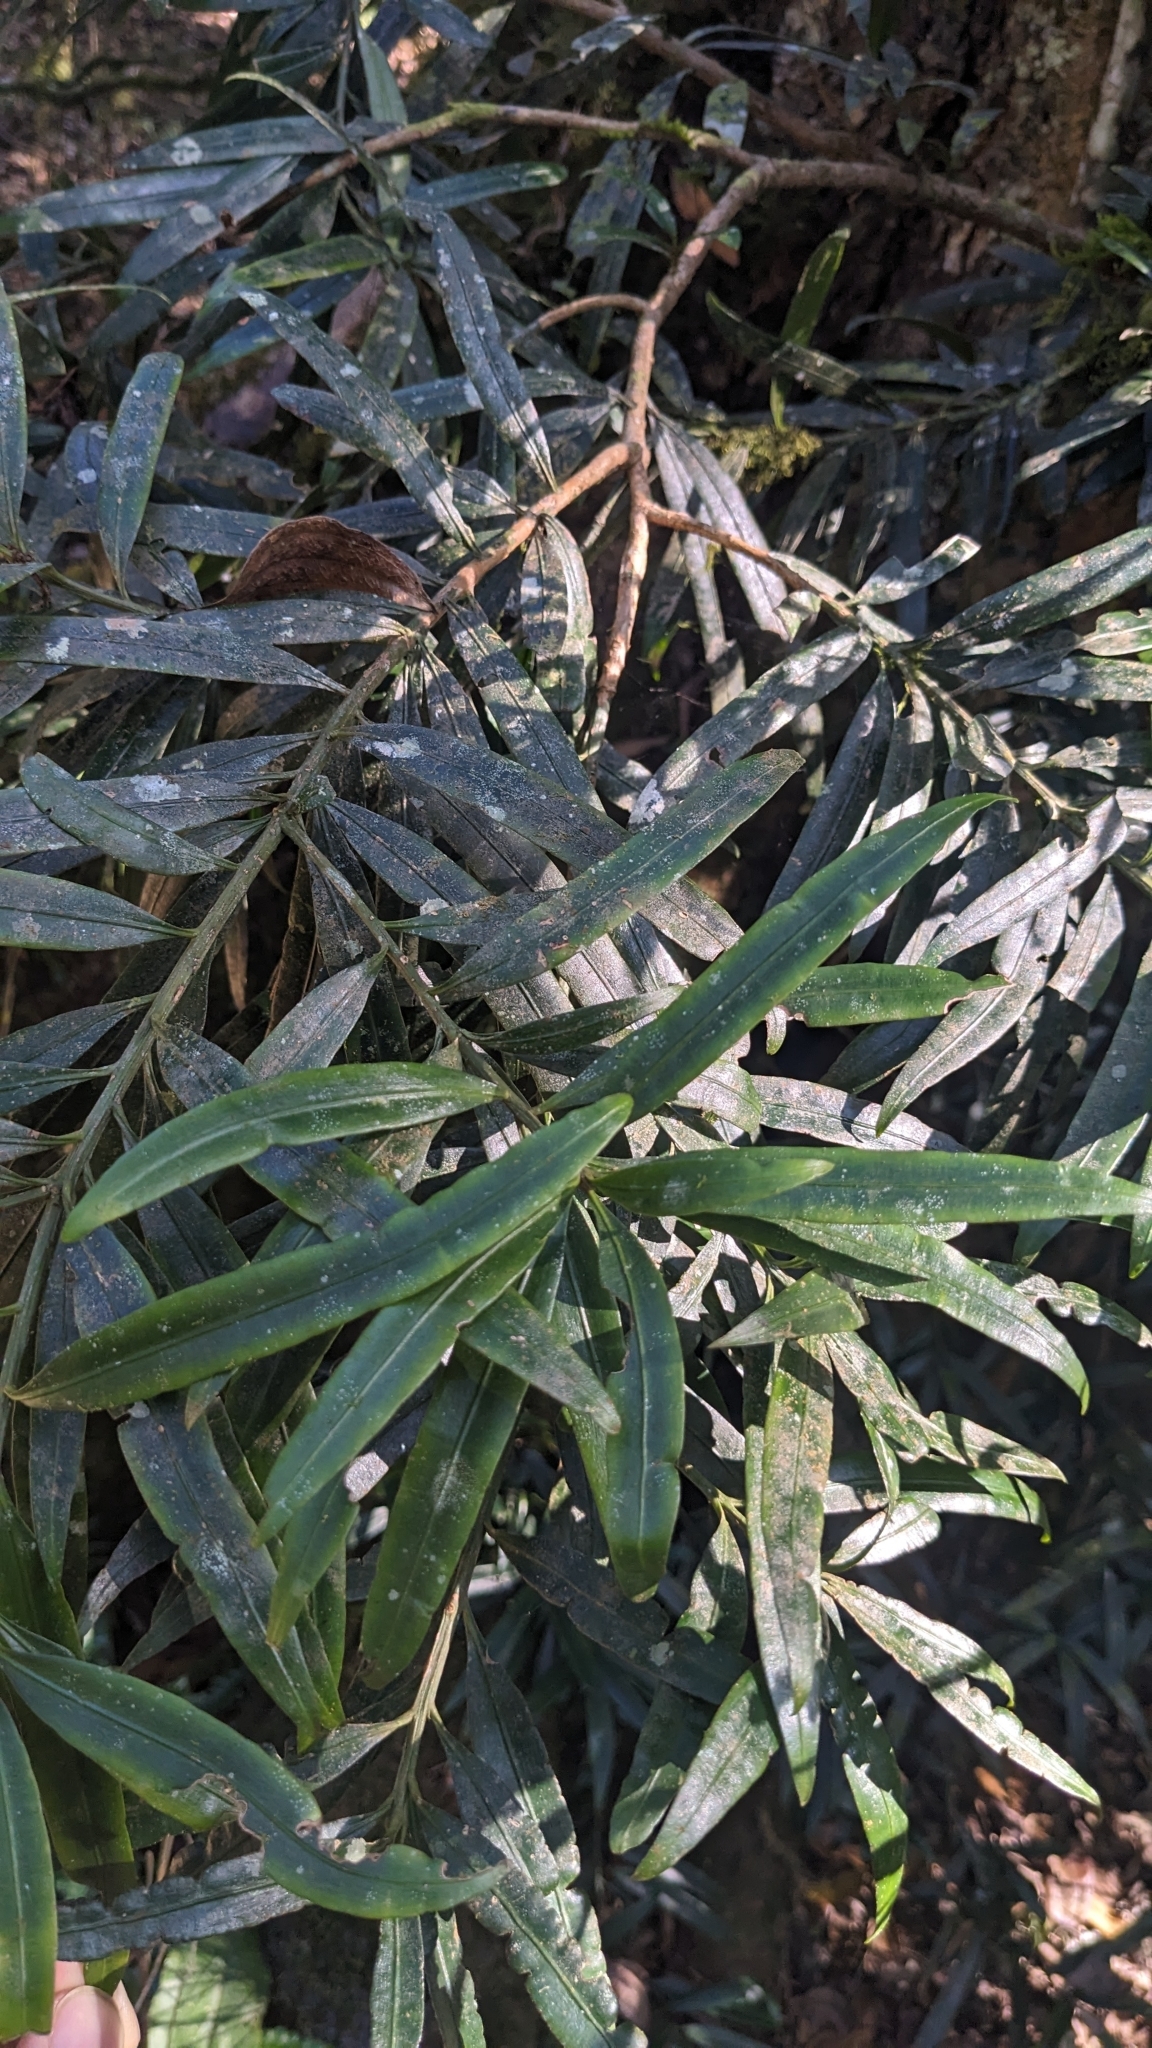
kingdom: Plantae
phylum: Tracheophyta
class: Pinopsida
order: Pinales
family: Podocarpaceae
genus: Podocarpus
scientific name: Podocarpus nakaii
